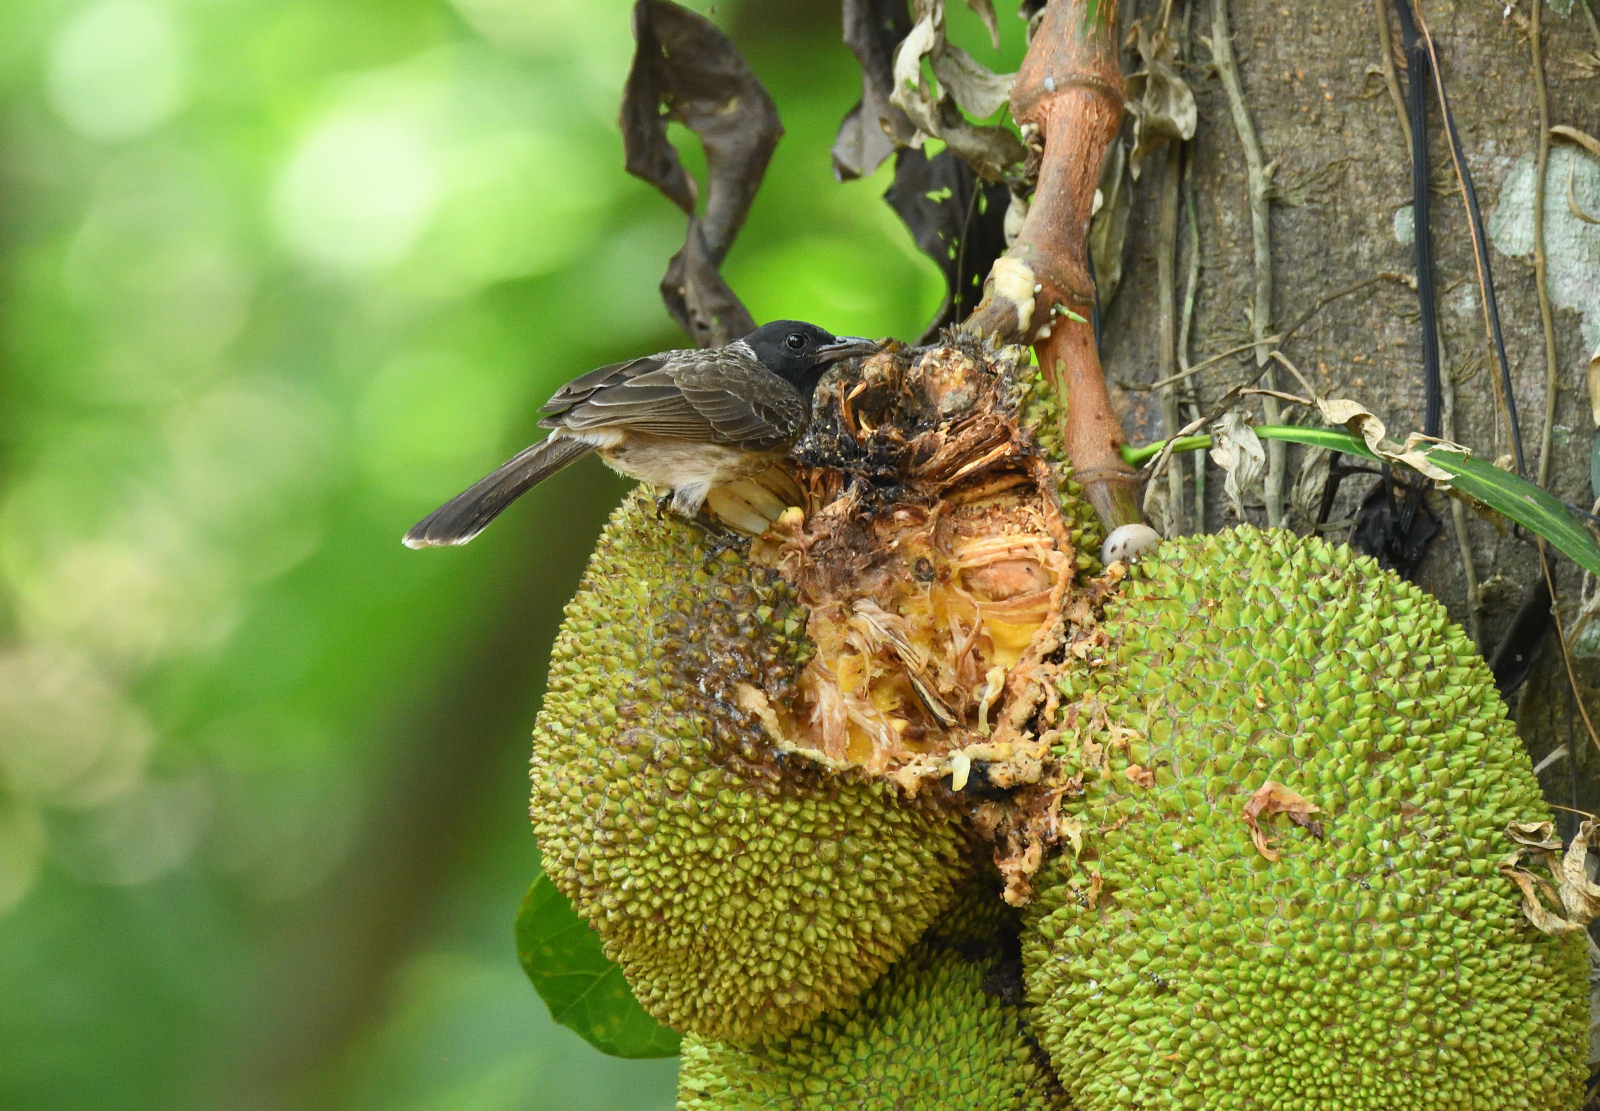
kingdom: Animalia
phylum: Chordata
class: Aves
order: Passeriformes
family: Pycnonotidae
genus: Pycnonotus
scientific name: Pycnonotus cafer
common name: Red-vented bulbul
